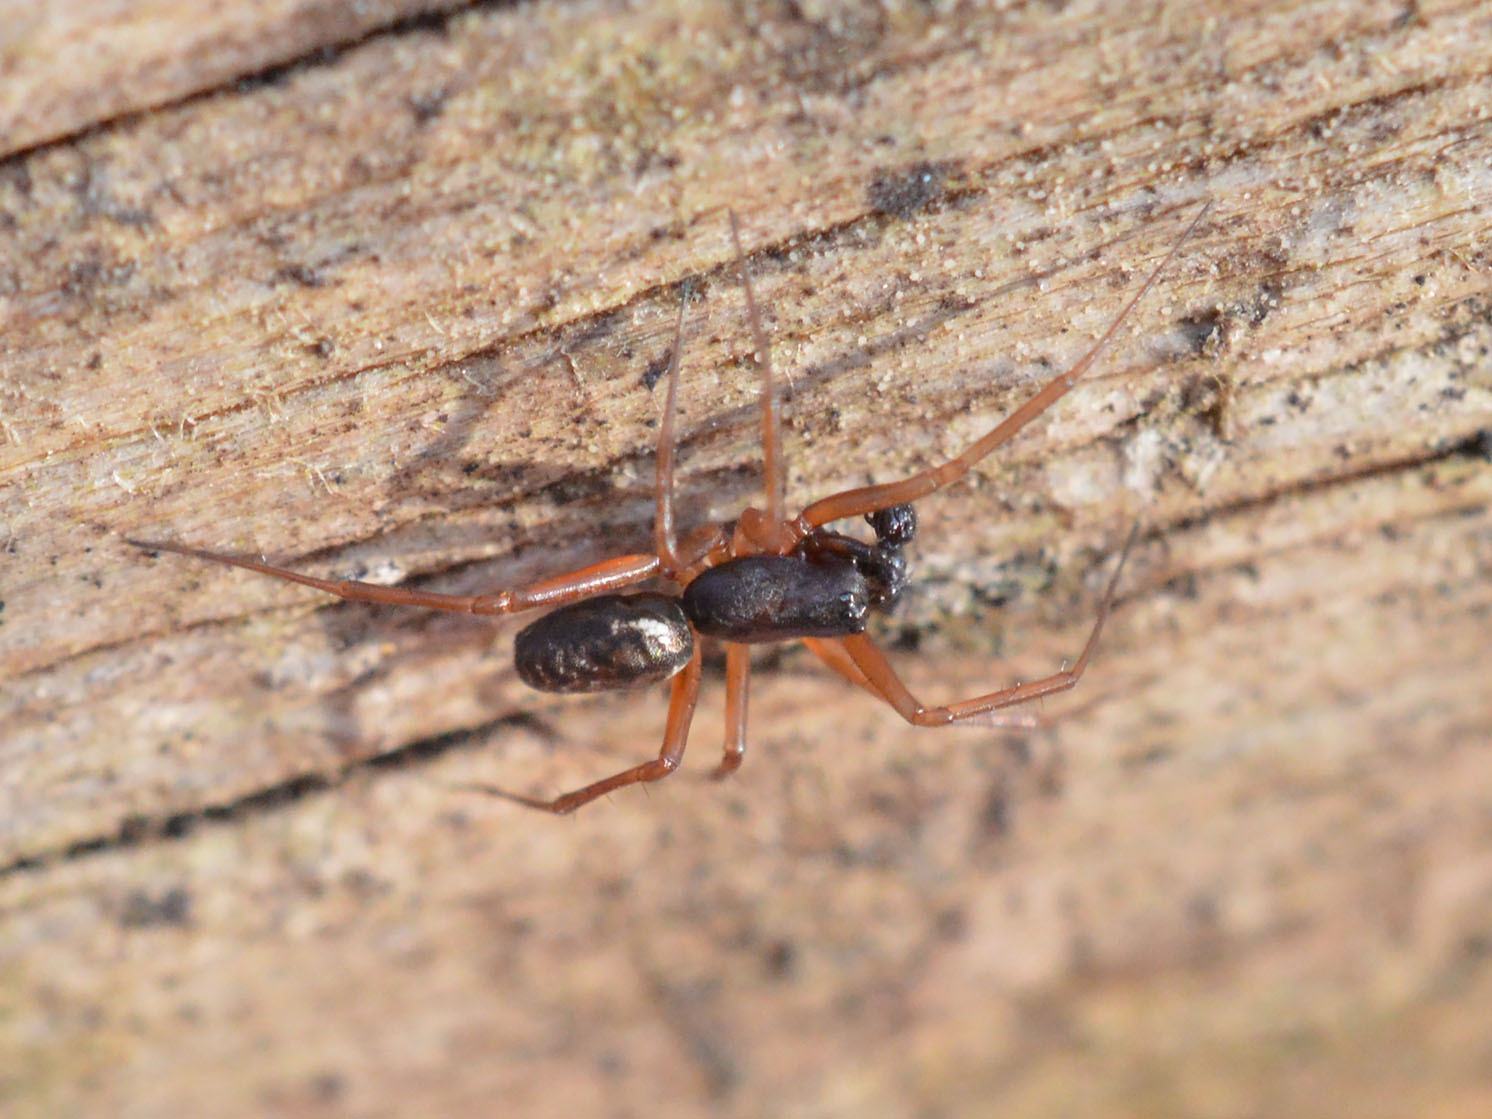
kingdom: Animalia
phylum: Arthropoda
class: Arachnida
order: Araneae
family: Linyphiidae
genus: Neriene
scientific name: Neriene clathrata
